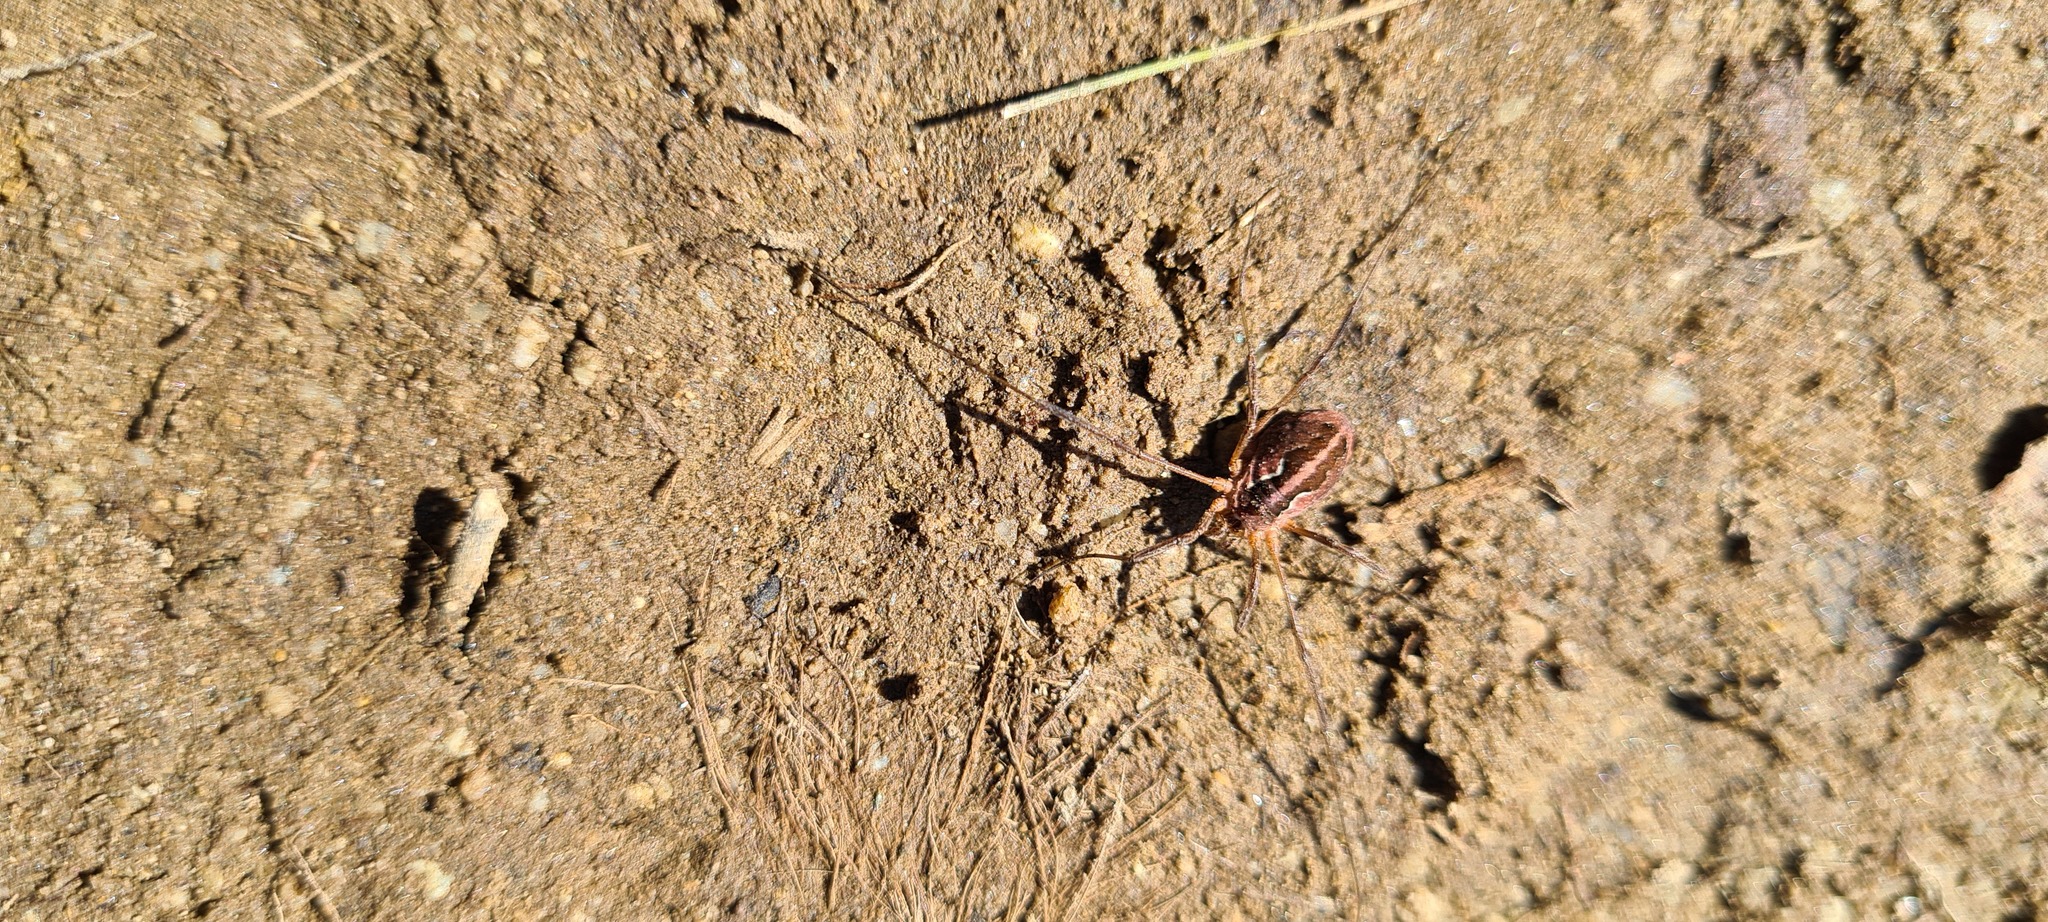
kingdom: Animalia
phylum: Arthropoda
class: Arachnida
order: Opiliones
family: Phalangiidae
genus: Mitopus
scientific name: Mitopus morio
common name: Saddleback harvestman
